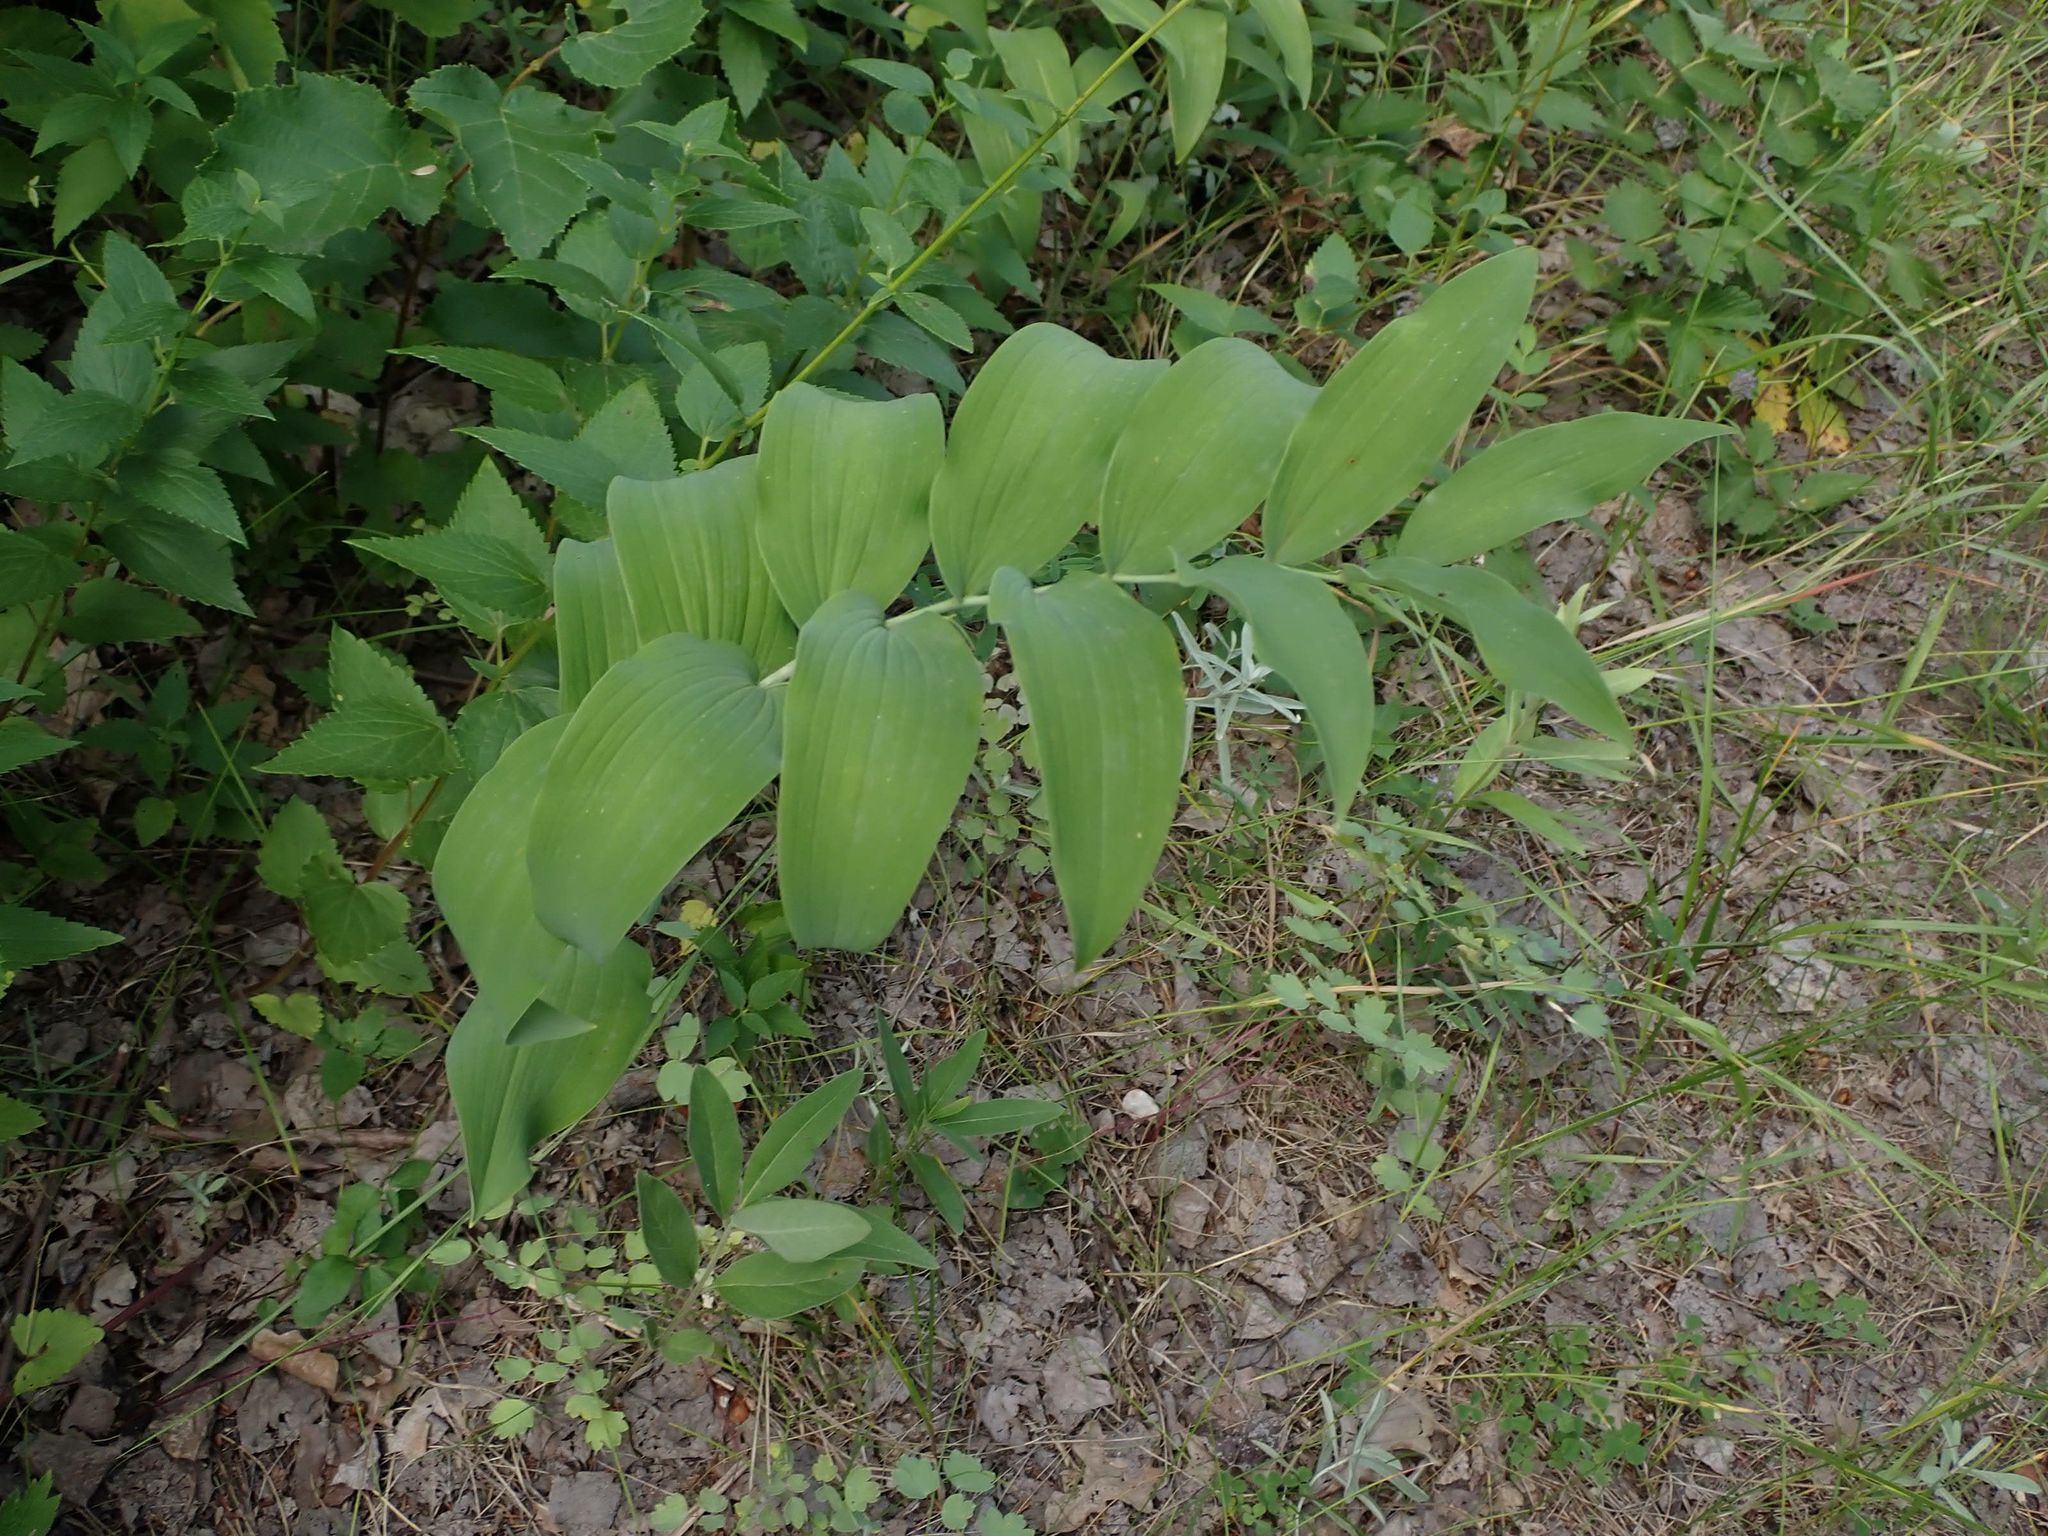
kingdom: Plantae
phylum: Tracheophyta
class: Liliopsida
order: Asparagales
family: Asparagaceae
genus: Polygonatum
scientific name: Polygonatum biflorum
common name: American solomon's-seal
